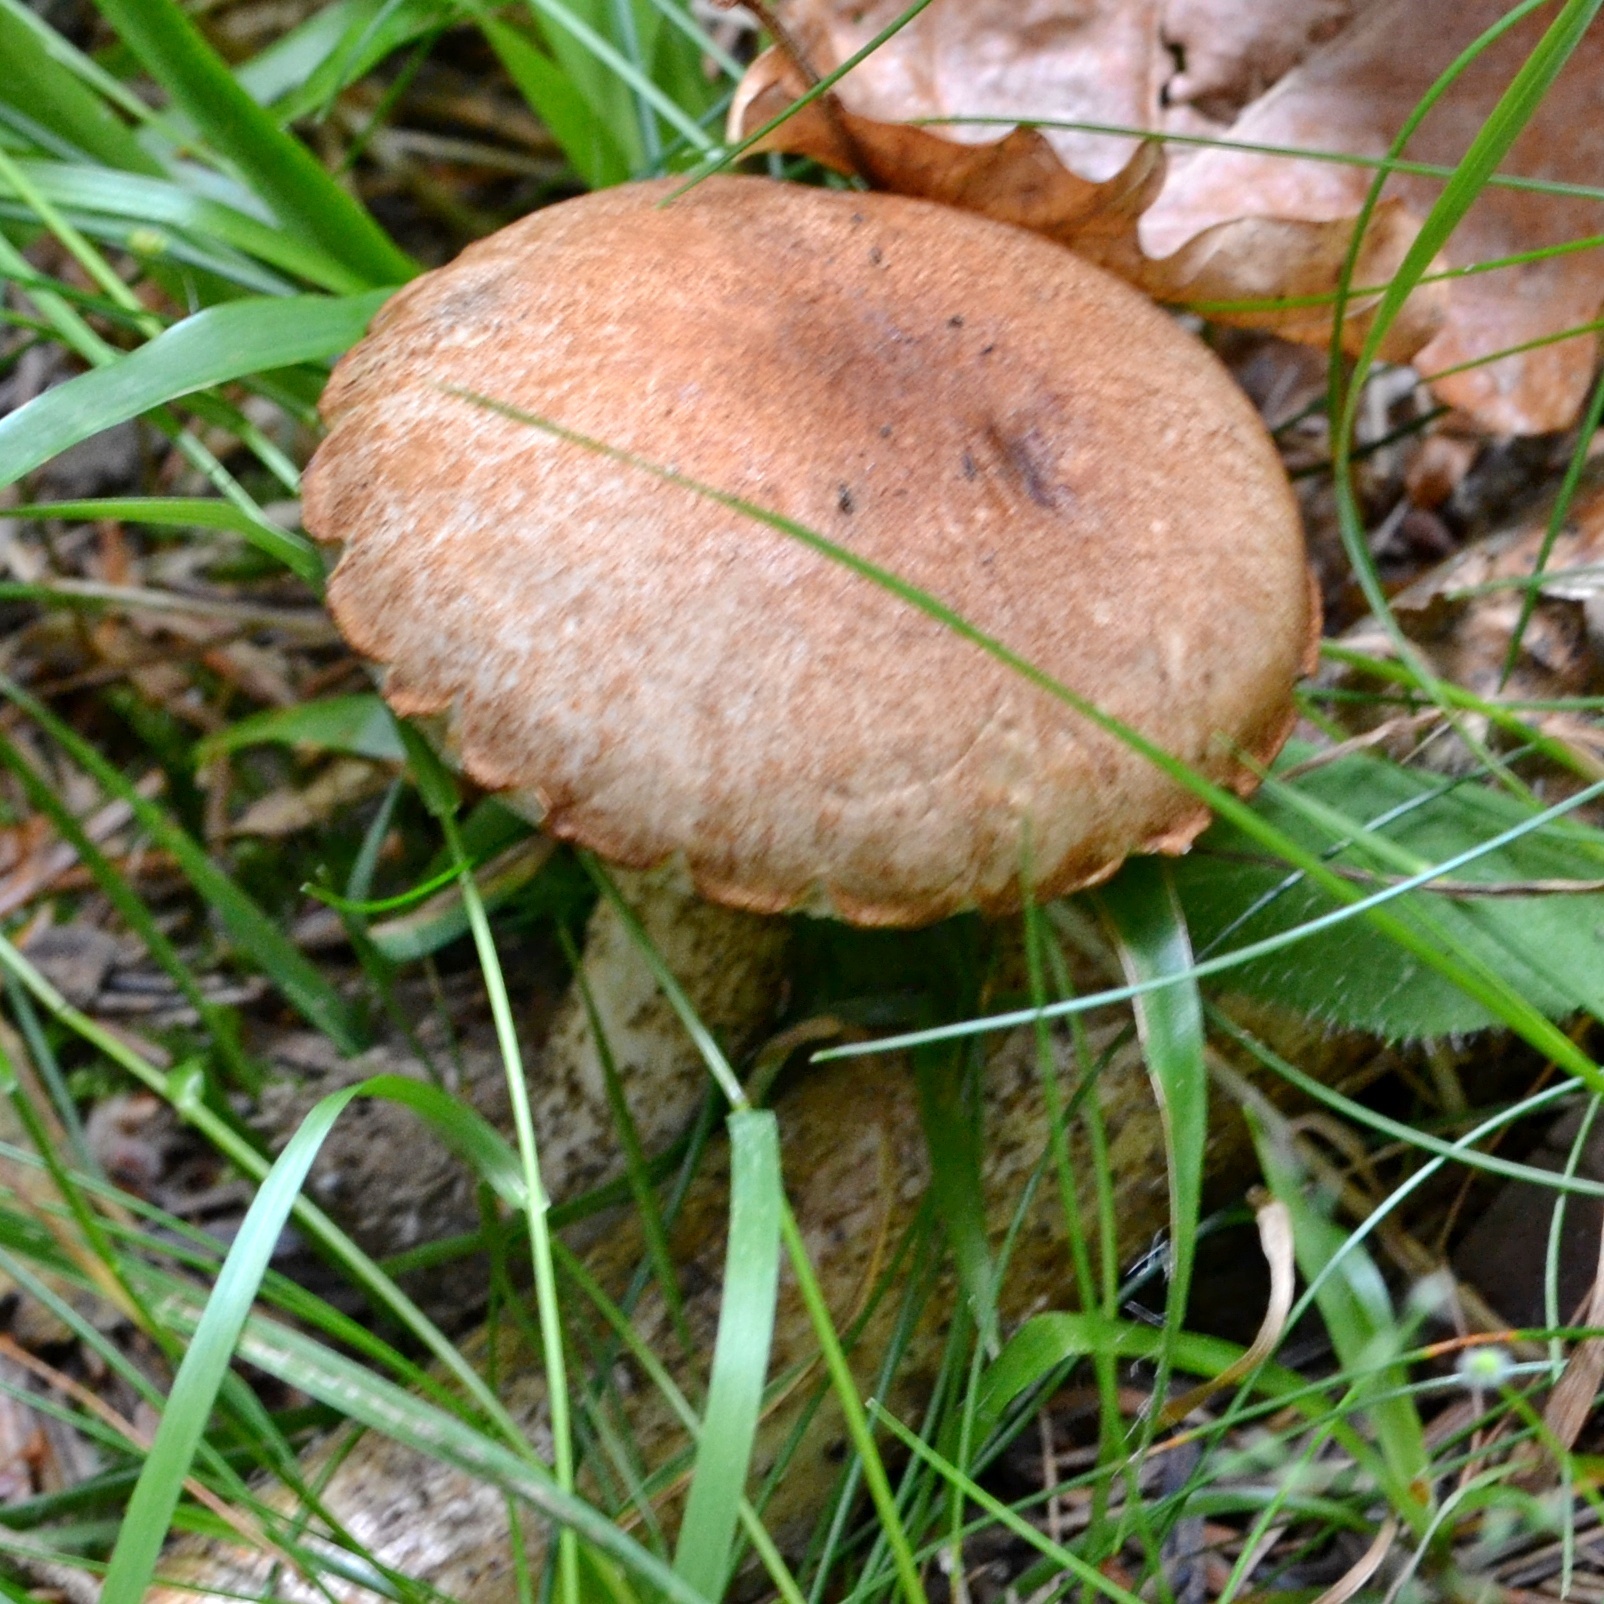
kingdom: Fungi
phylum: Basidiomycota
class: Agaricomycetes
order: Boletales
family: Boletaceae
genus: Leccinum
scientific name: Leccinum scabrum
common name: Blushing bolete
